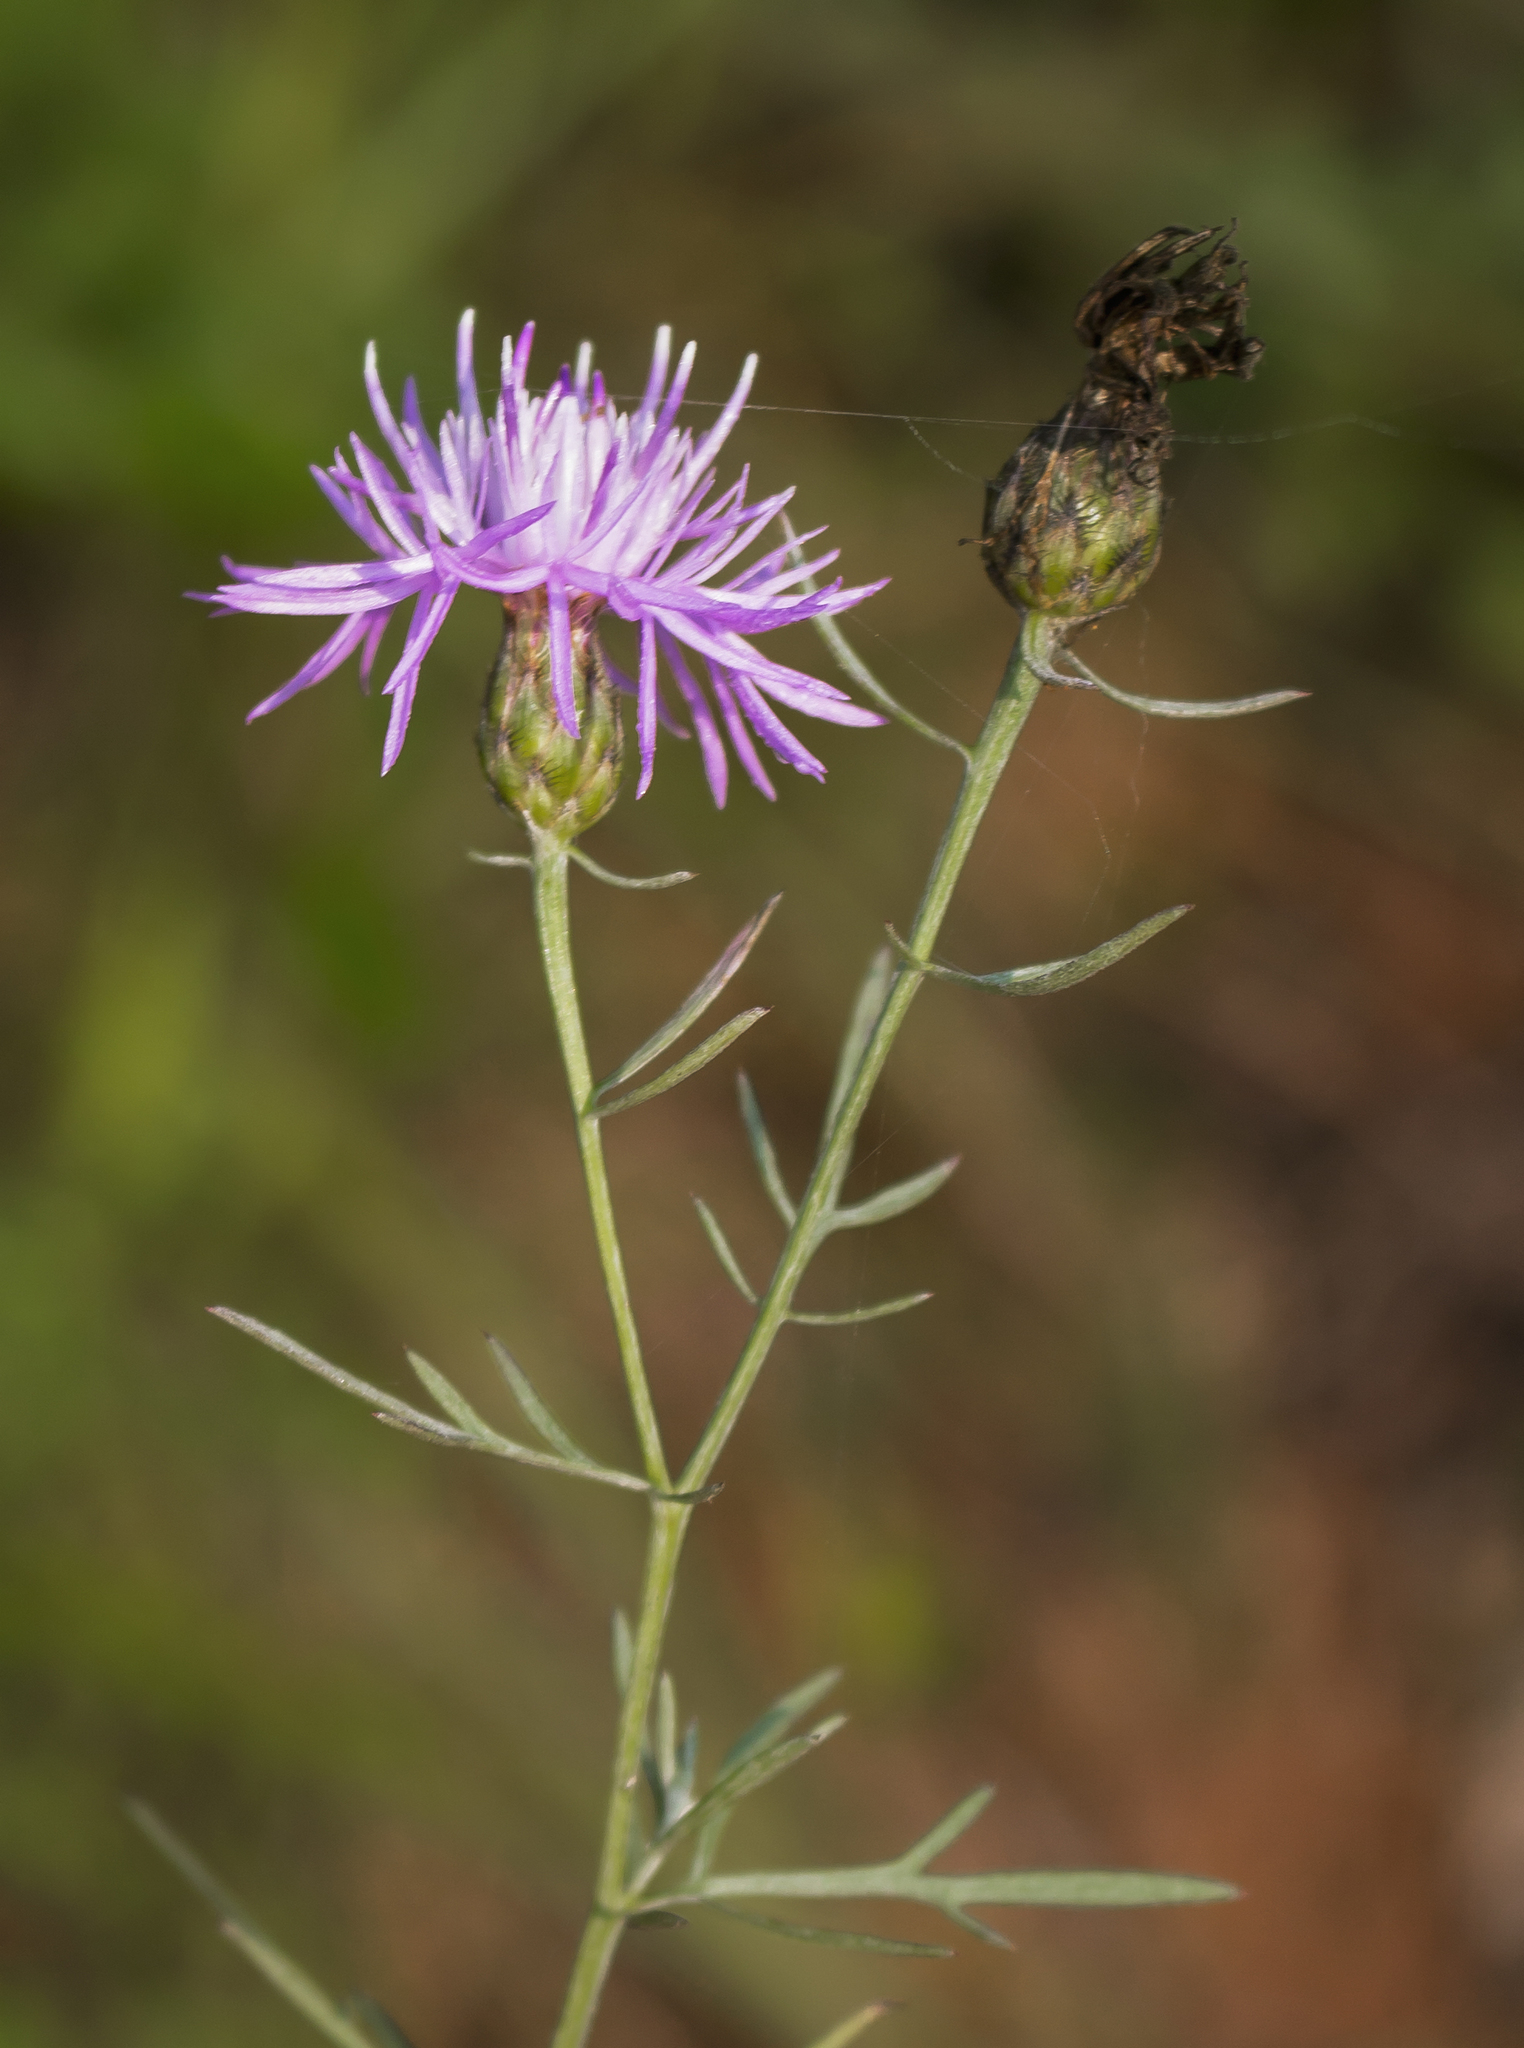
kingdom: Plantae
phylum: Tracheophyta
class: Magnoliopsida
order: Asterales
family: Asteraceae
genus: Centaurea
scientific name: Centaurea stoebe
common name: Spotted knapweed
